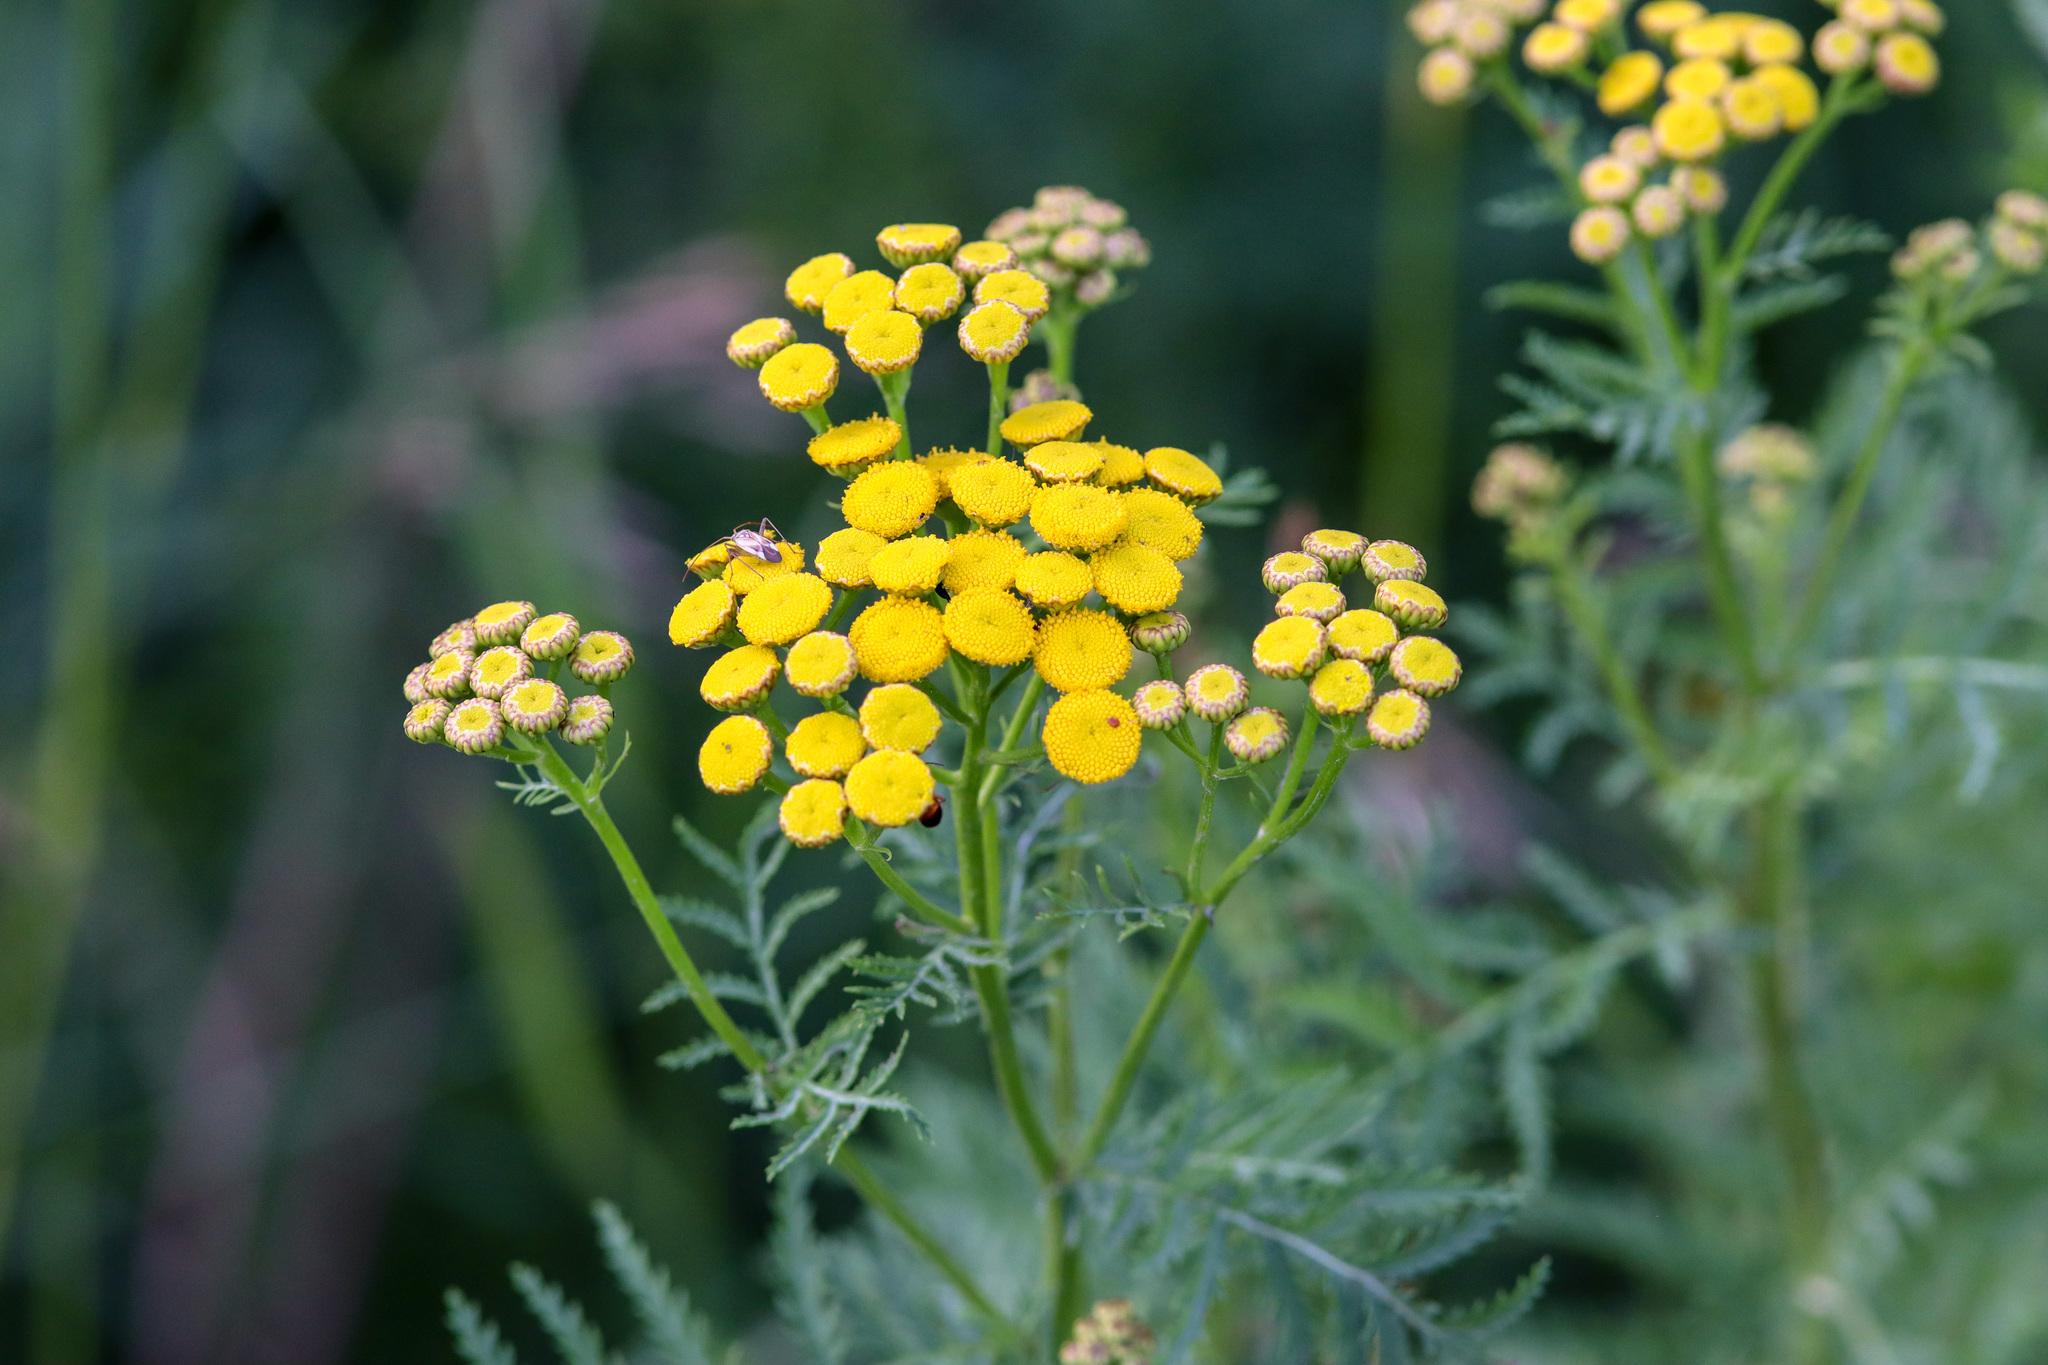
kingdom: Plantae
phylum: Tracheophyta
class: Magnoliopsida
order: Asterales
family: Asteraceae
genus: Tanacetum
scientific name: Tanacetum vulgare
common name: Common tansy
